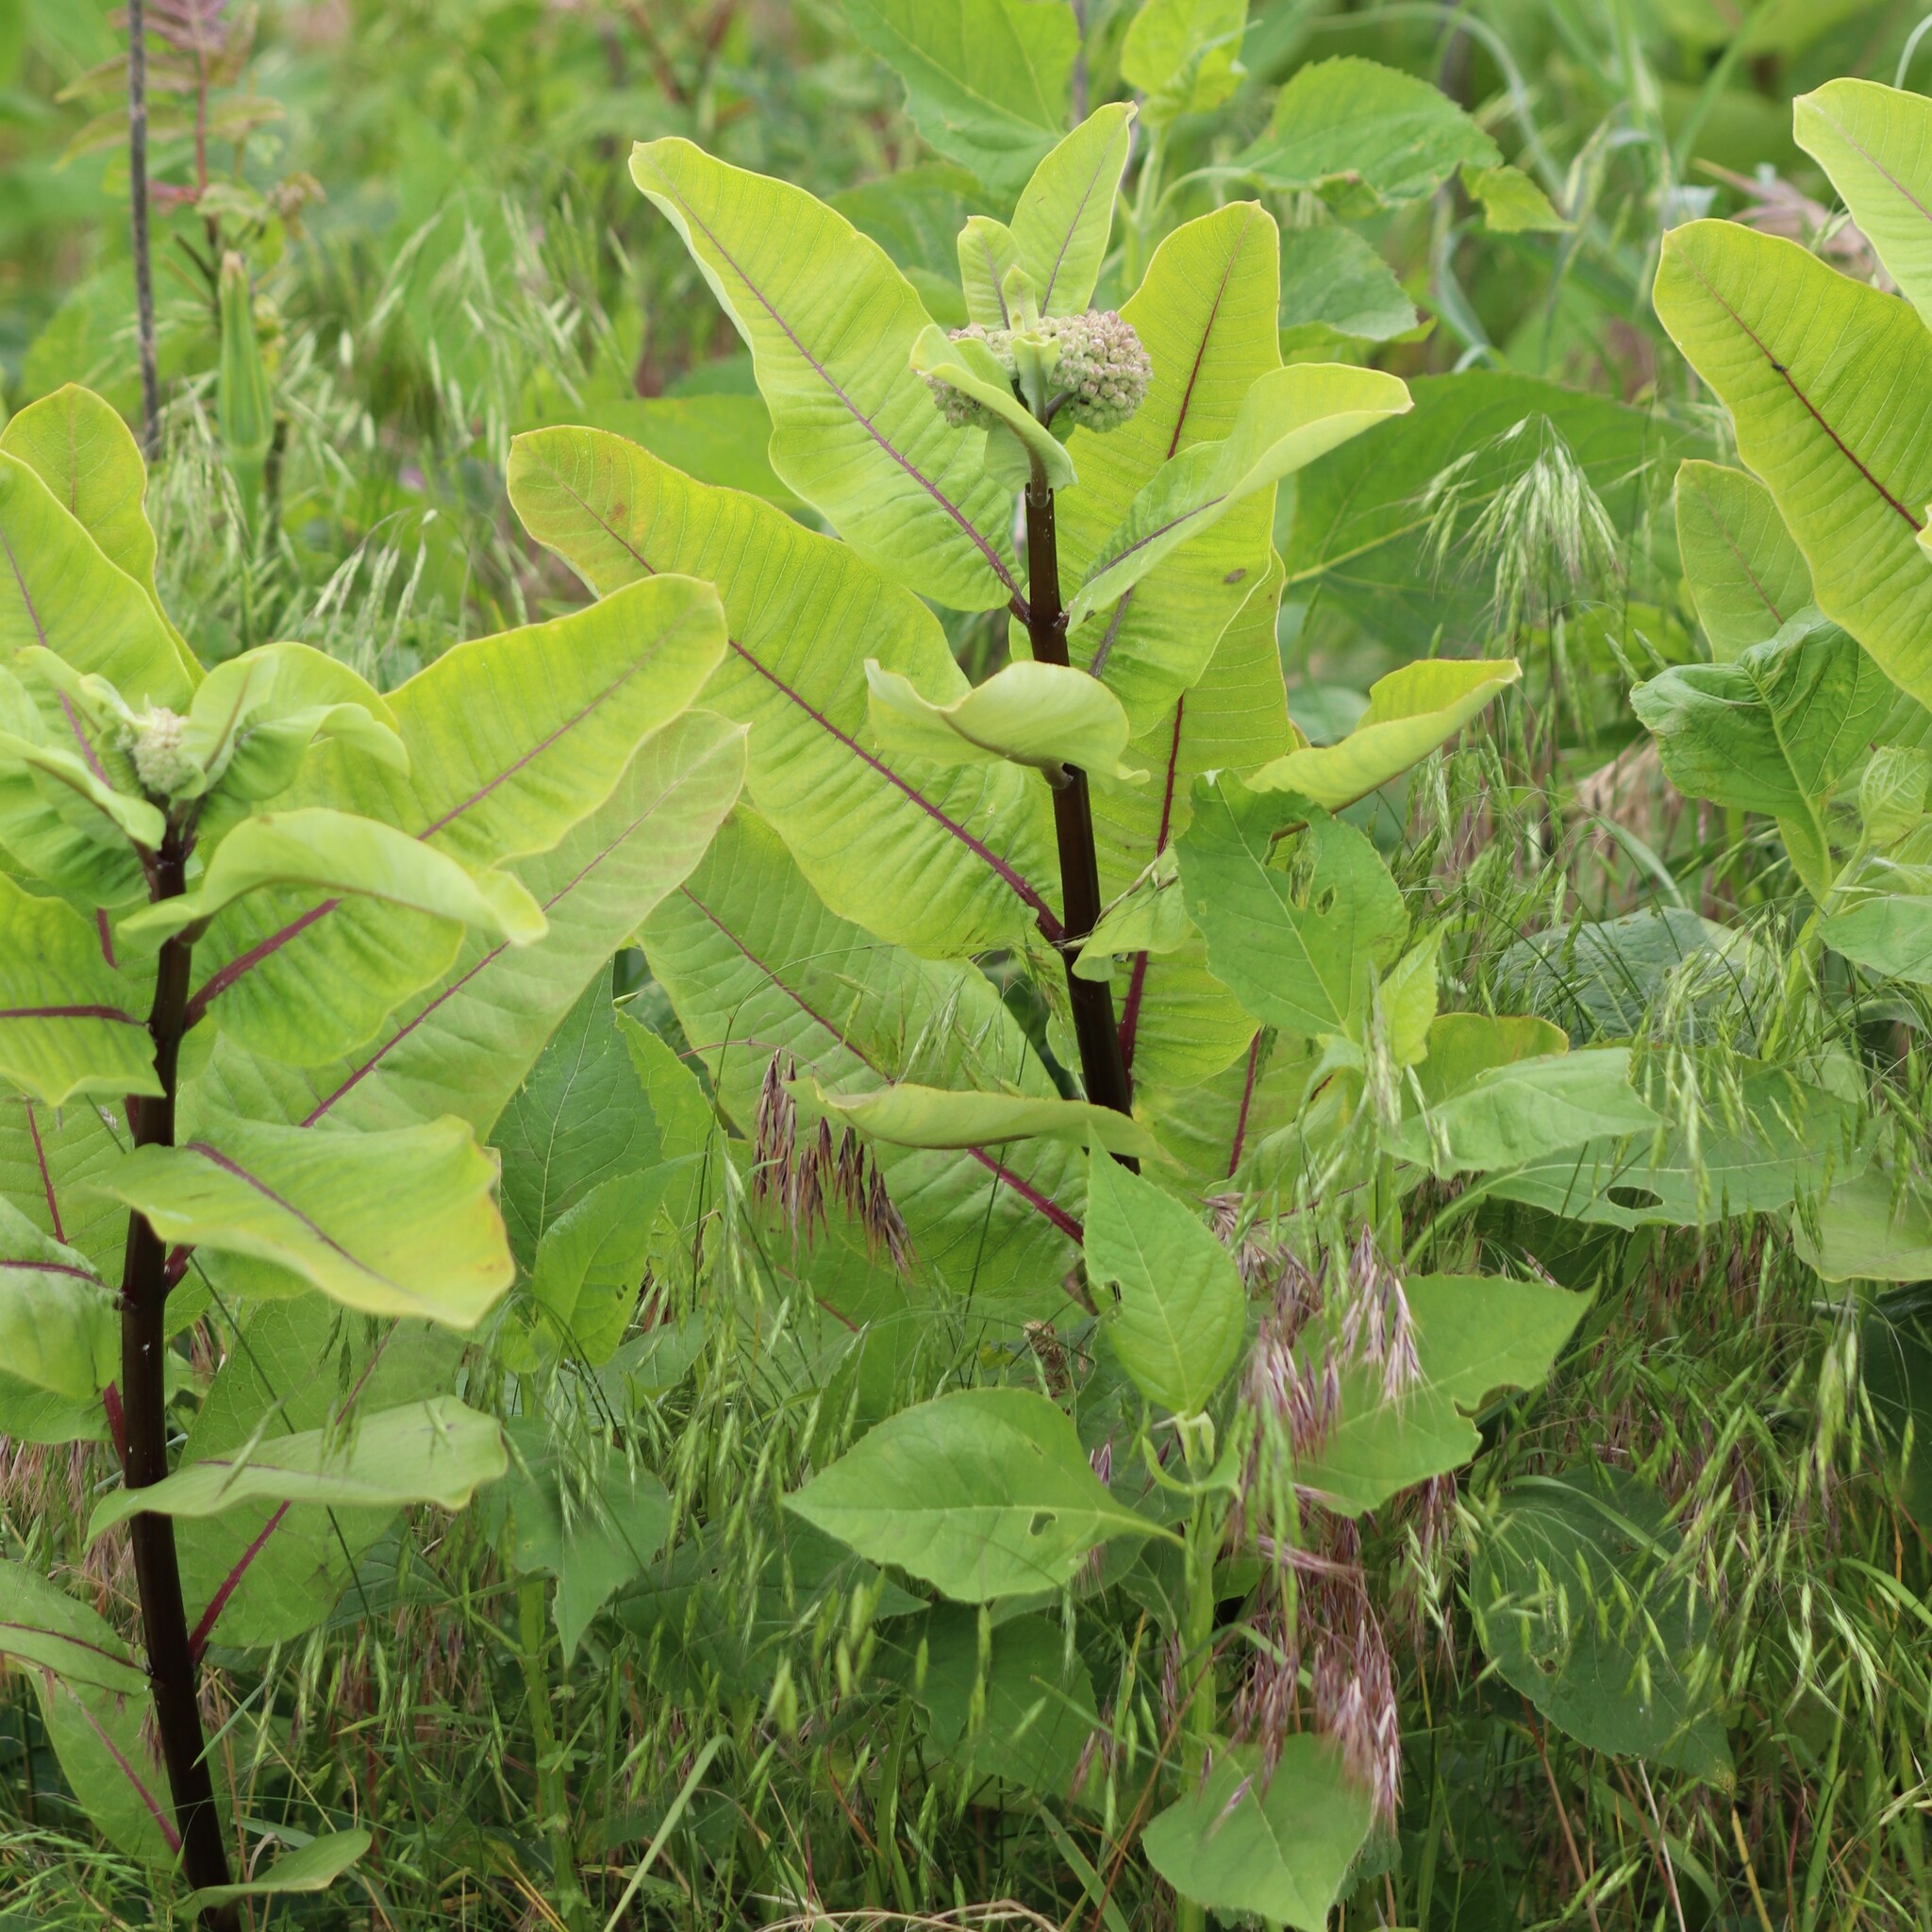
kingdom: Plantae
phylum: Tracheophyta
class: Magnoliopsida
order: Gentianales
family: Apocynaceae
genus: Asclepias
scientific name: Asclepias syriaca
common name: Common milkweed
